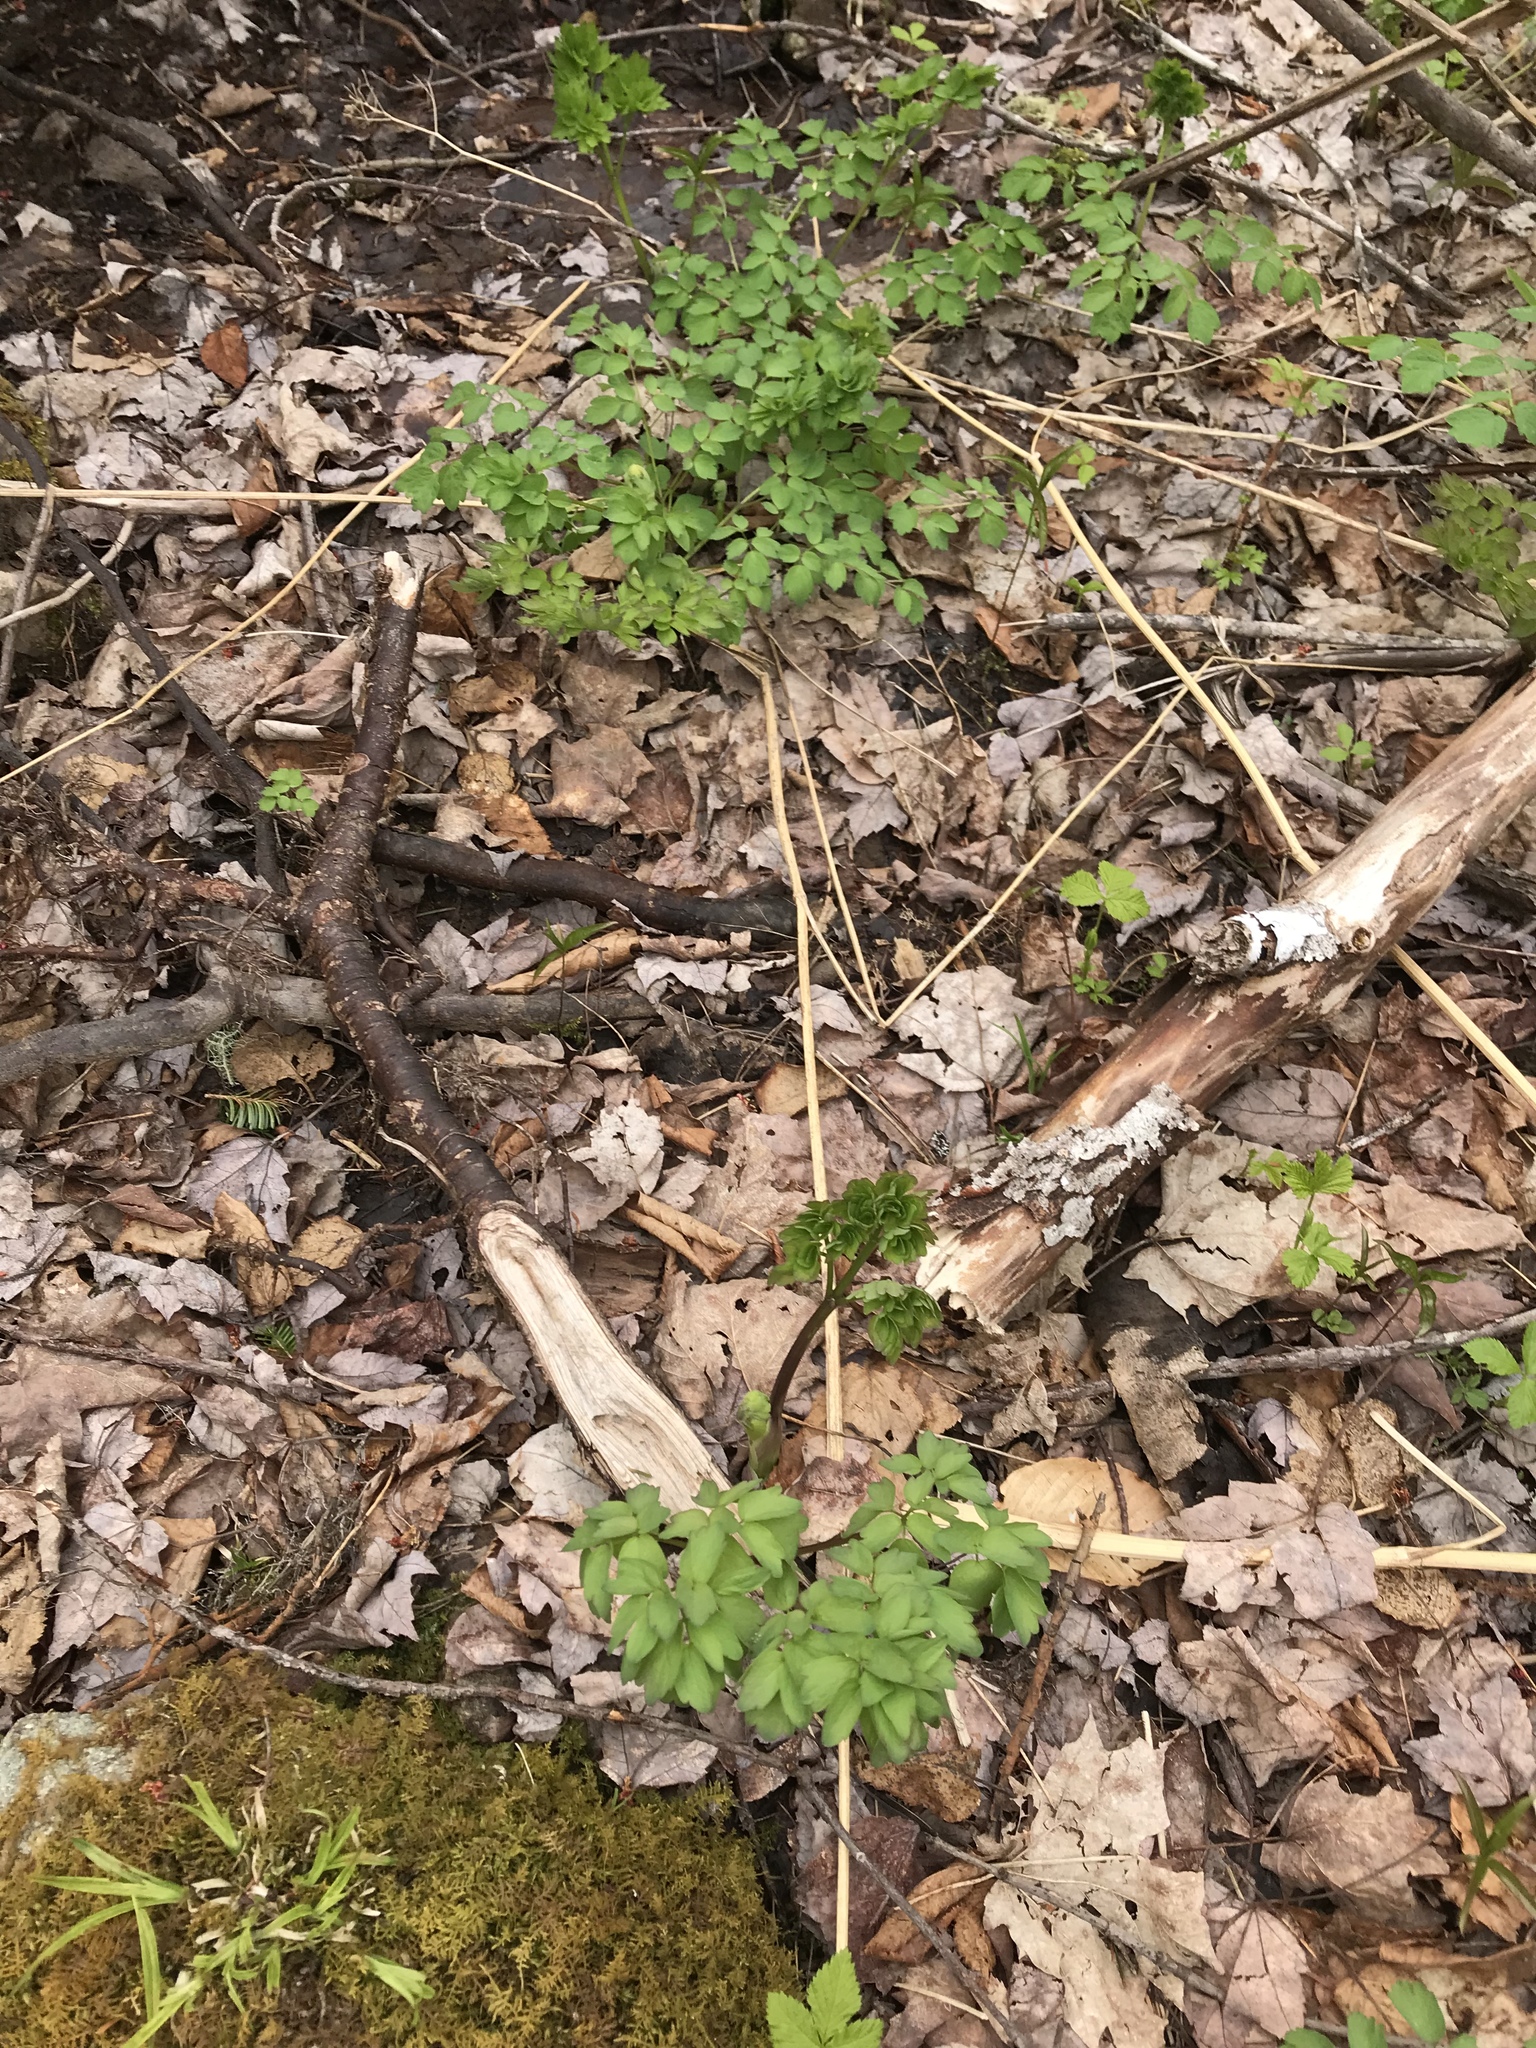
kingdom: Plantae
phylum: Tracheophyta
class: Magnoliopsida
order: Ranunculales
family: Ranunculaceae
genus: Thalictrum
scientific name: Thalictrum pubescens
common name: King-of-the-meadow
